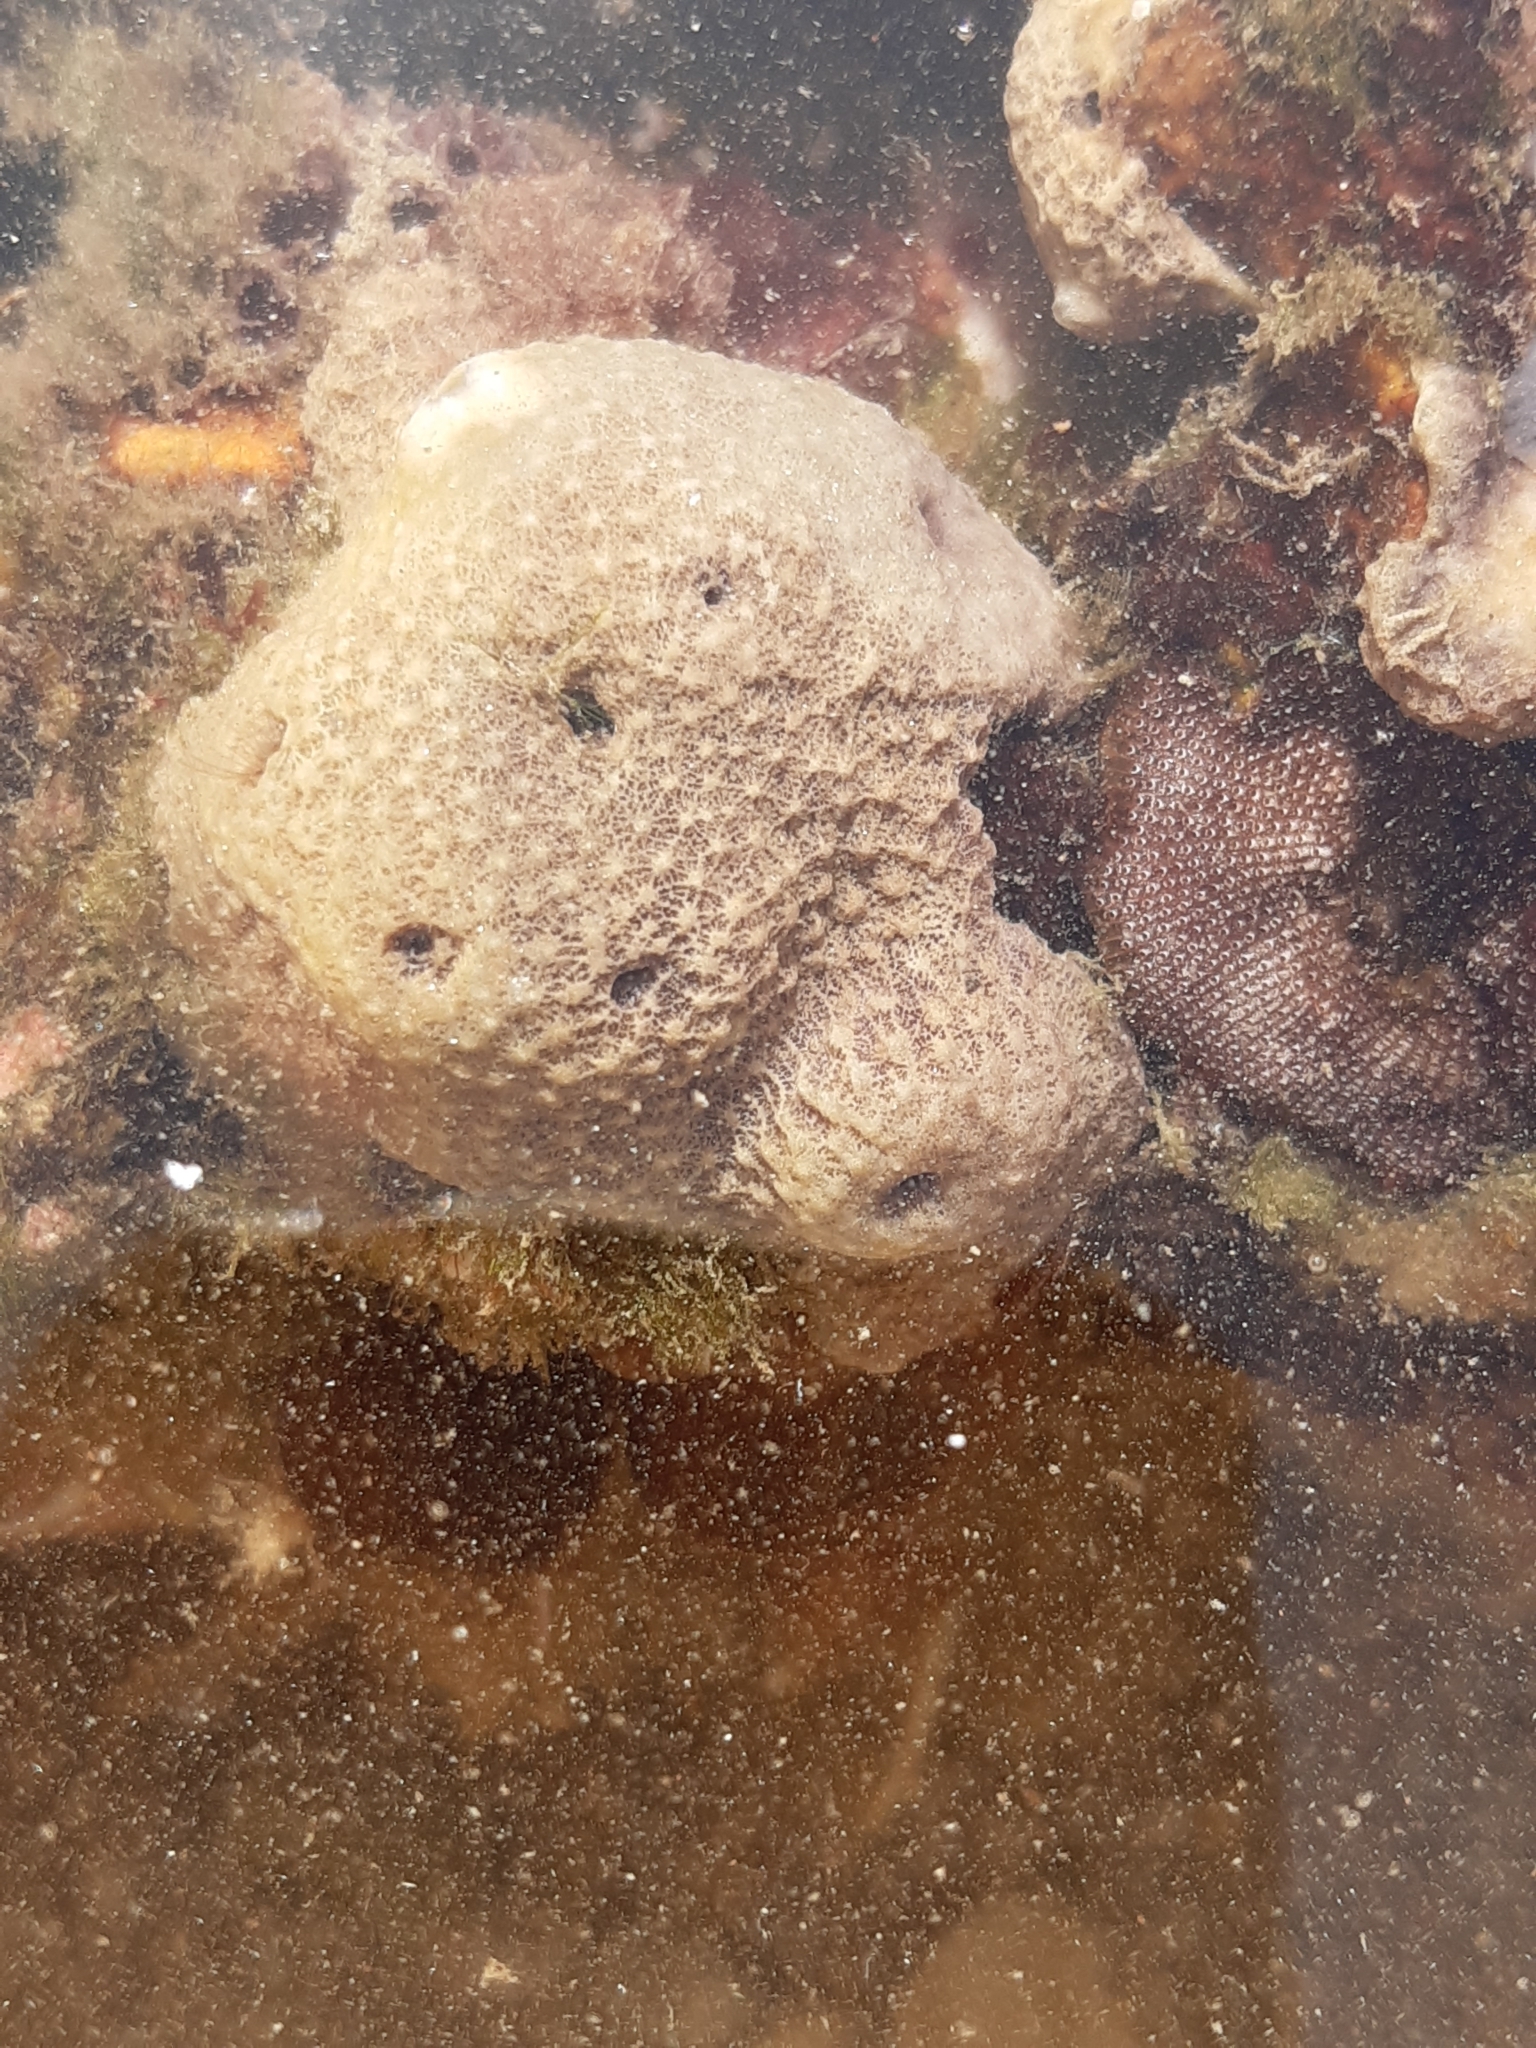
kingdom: Animalia
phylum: Porifera
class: Demospongiae
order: Dictyoceratida
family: Irciniidae
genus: Ircinia
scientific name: Ircinia variabilis
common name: Variable loggerhead sponge
